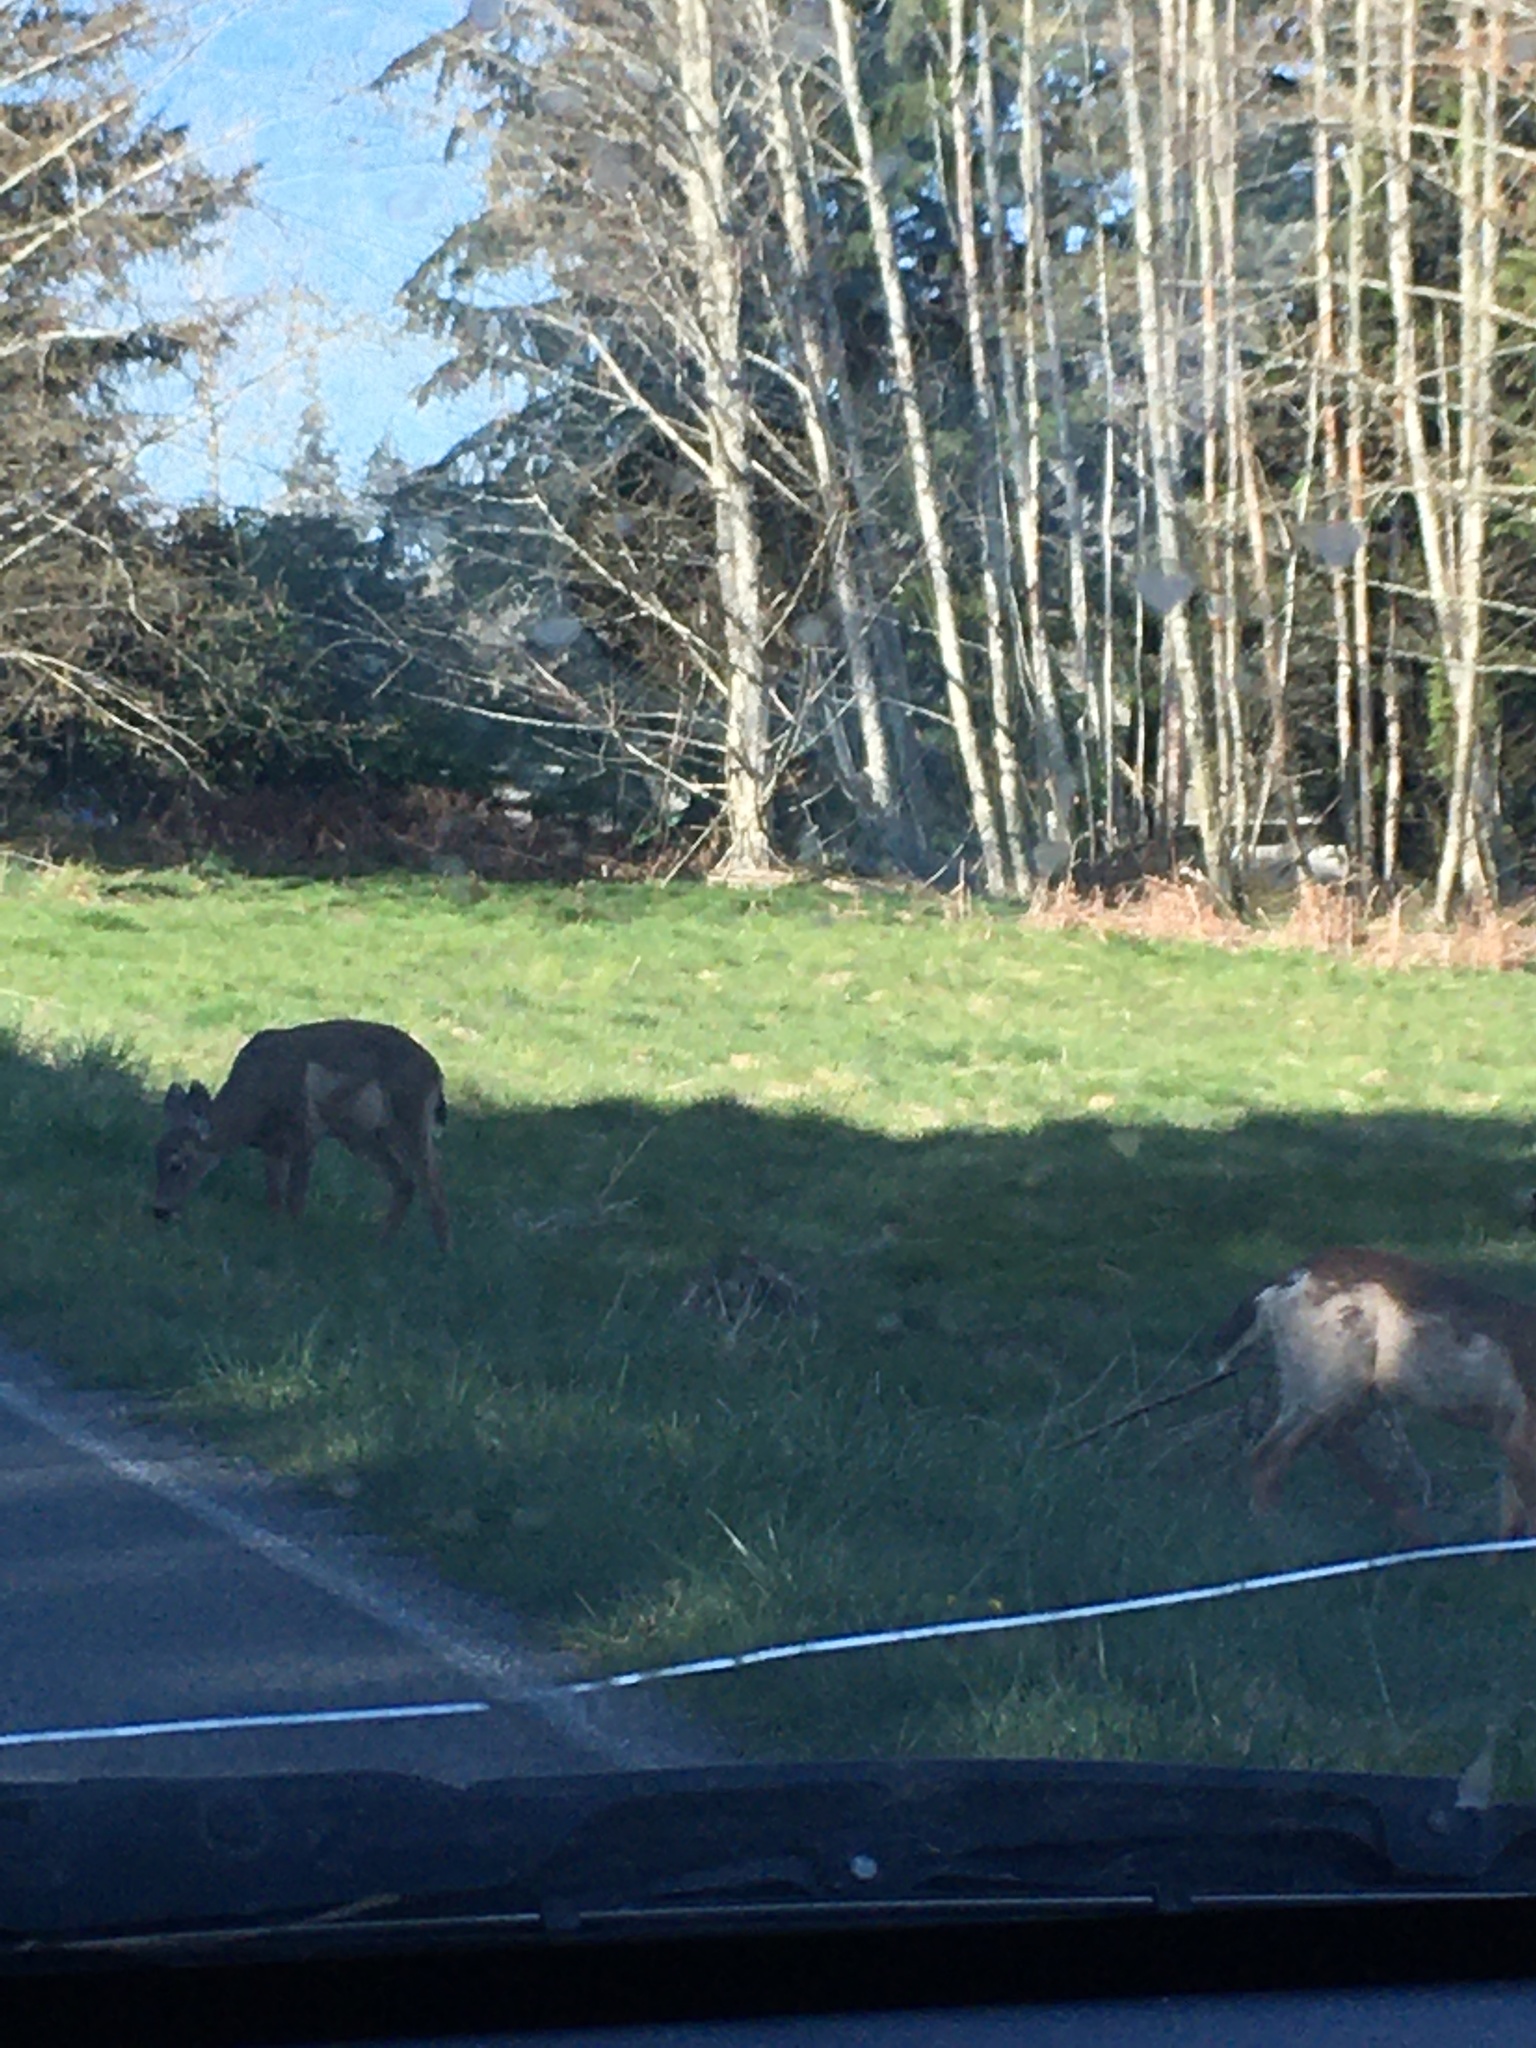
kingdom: Animalia
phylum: Chordata
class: Mammalia
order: Artiodactyla
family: Cervidae
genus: Odocoileus
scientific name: Odocoileus hemionus
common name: Mule deer
